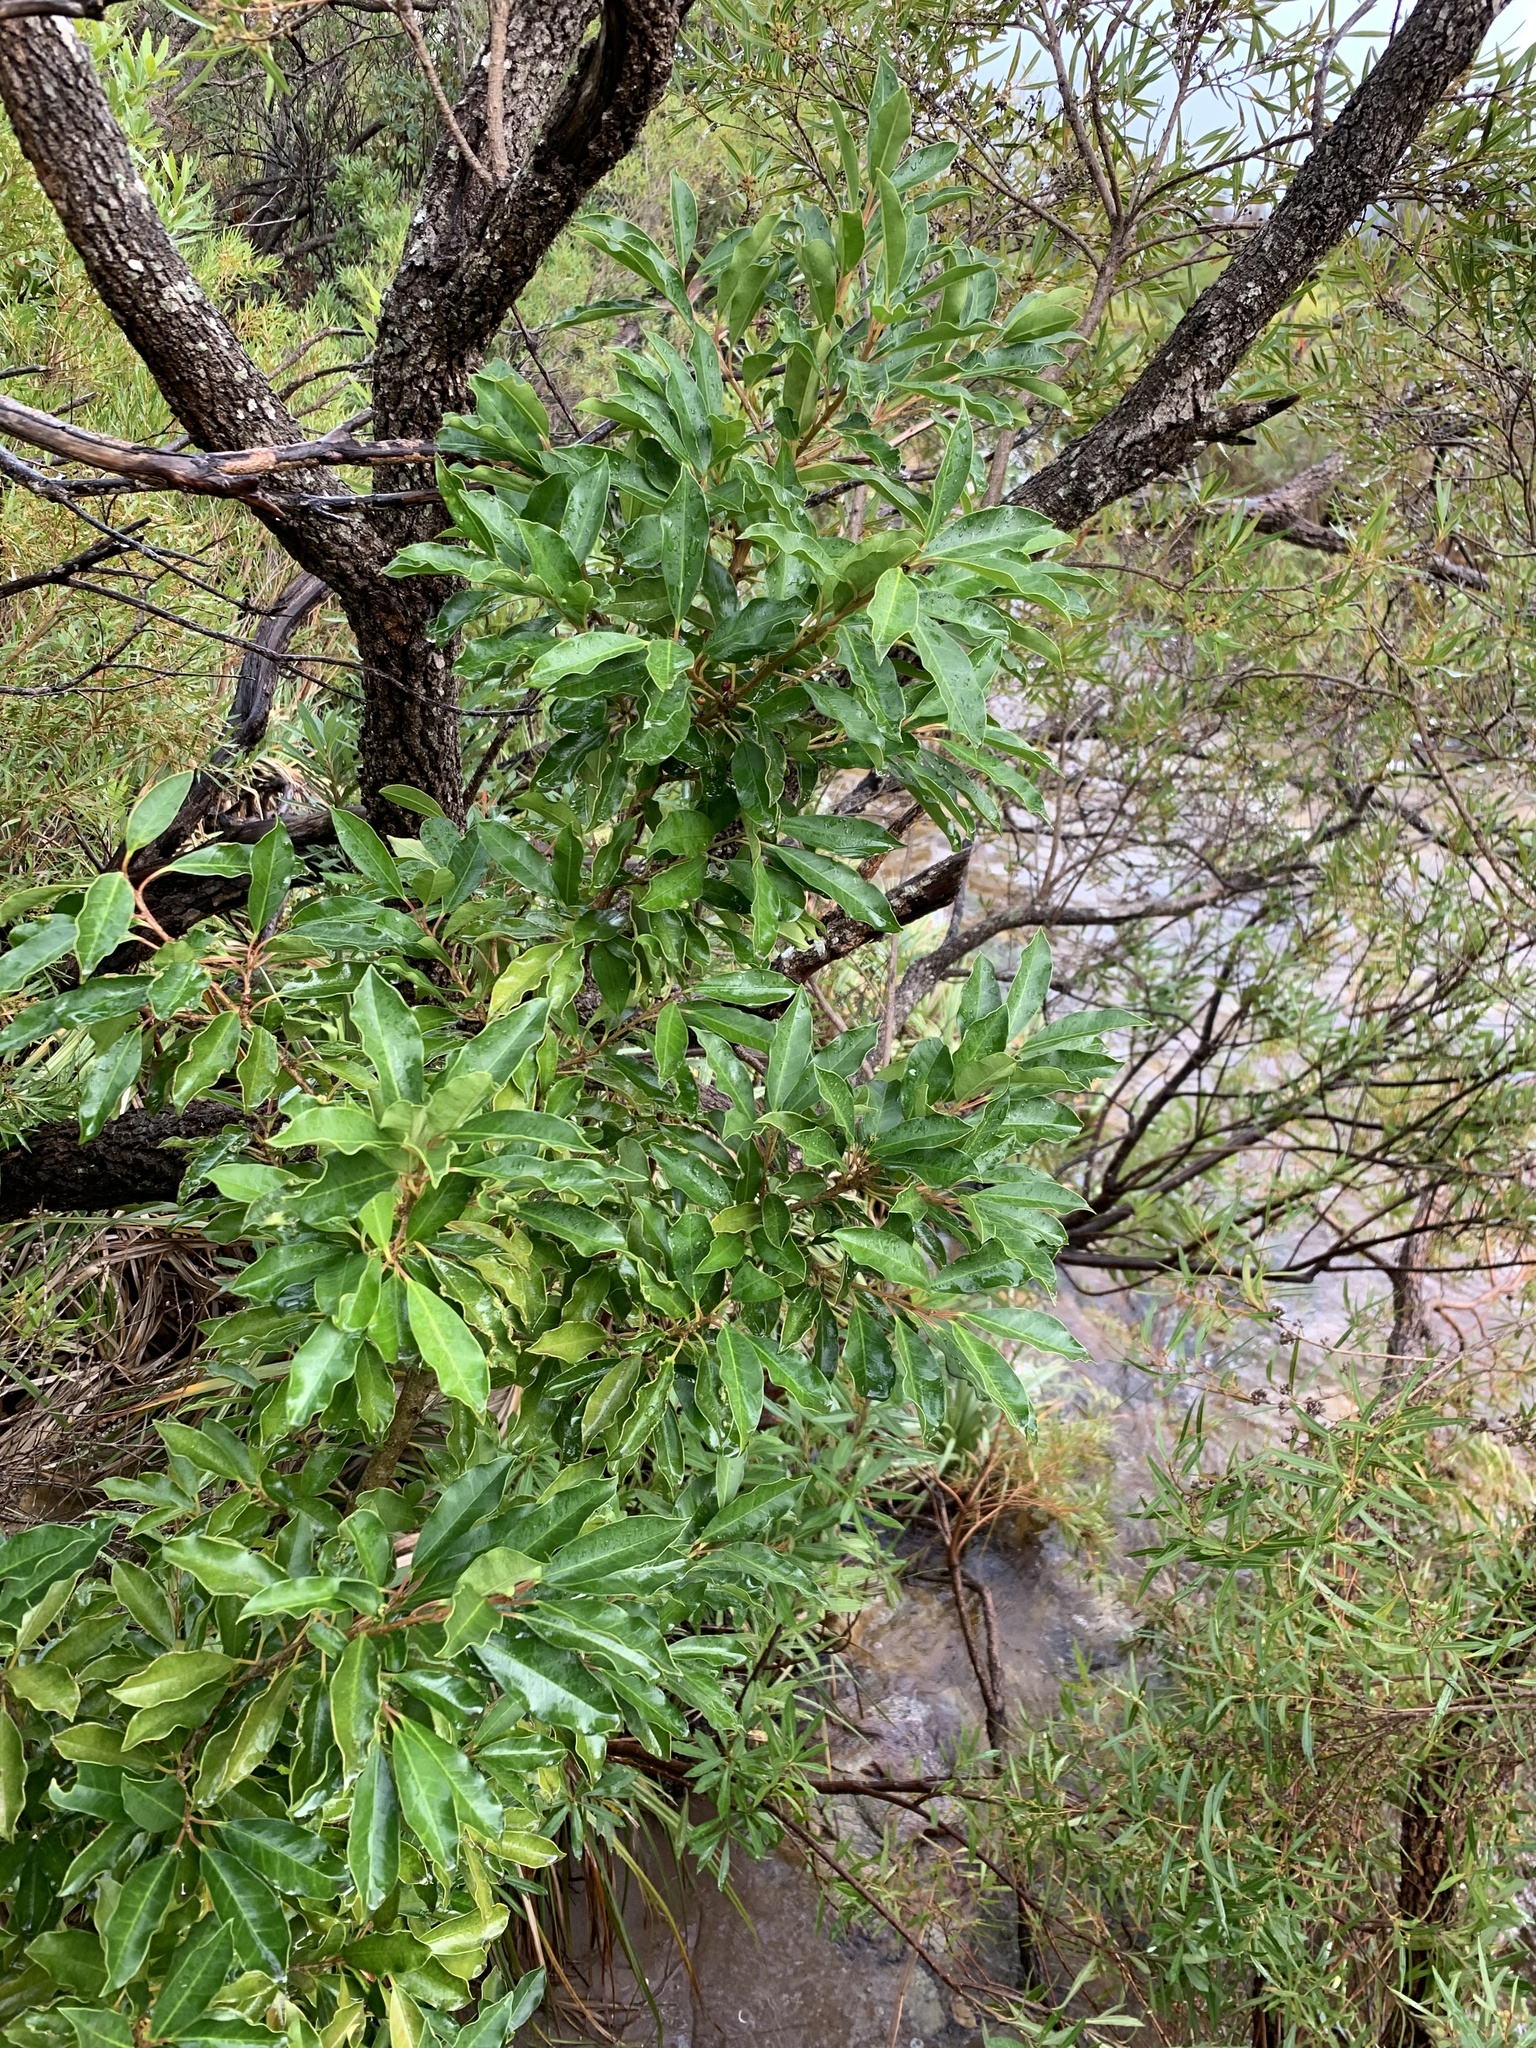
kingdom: Plantae
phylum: Tracheophyta
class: Magnoliopsida
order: Aquifoliales
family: Aquifoliaceae
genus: Ilex
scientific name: Ilex mitis
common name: African holly
